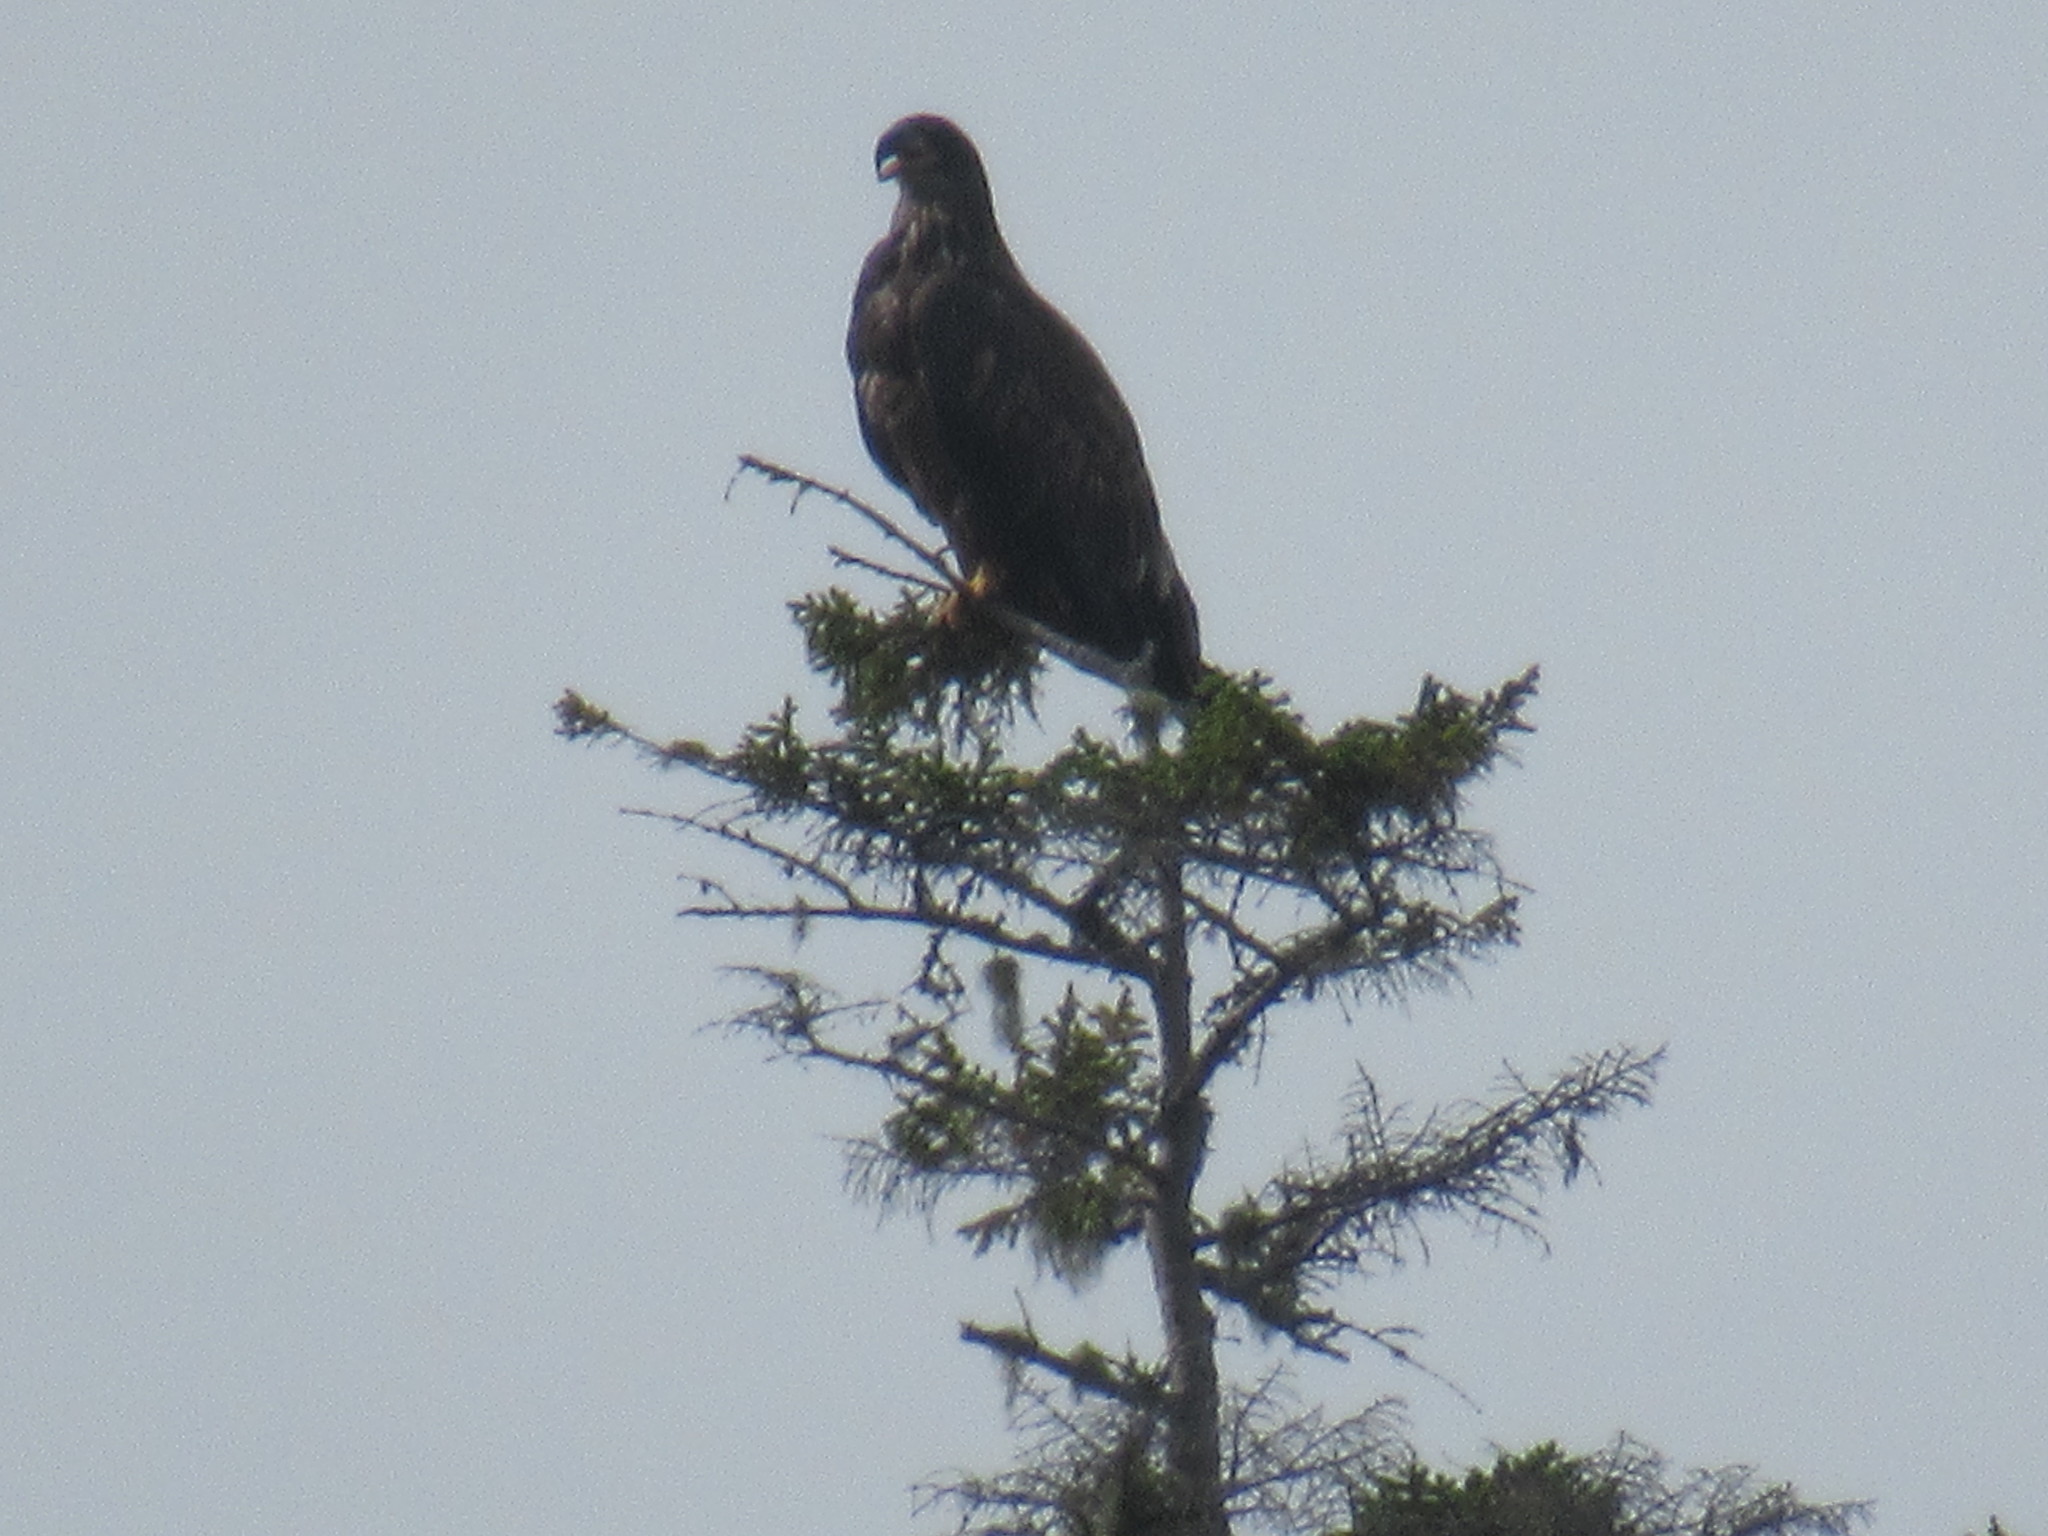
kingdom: Animalia
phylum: Chordata
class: Aves
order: Accipitriformes
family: Accipitridae
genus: Haliaeetus
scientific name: Haliaeetus leucocephalus
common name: Bald eagle
